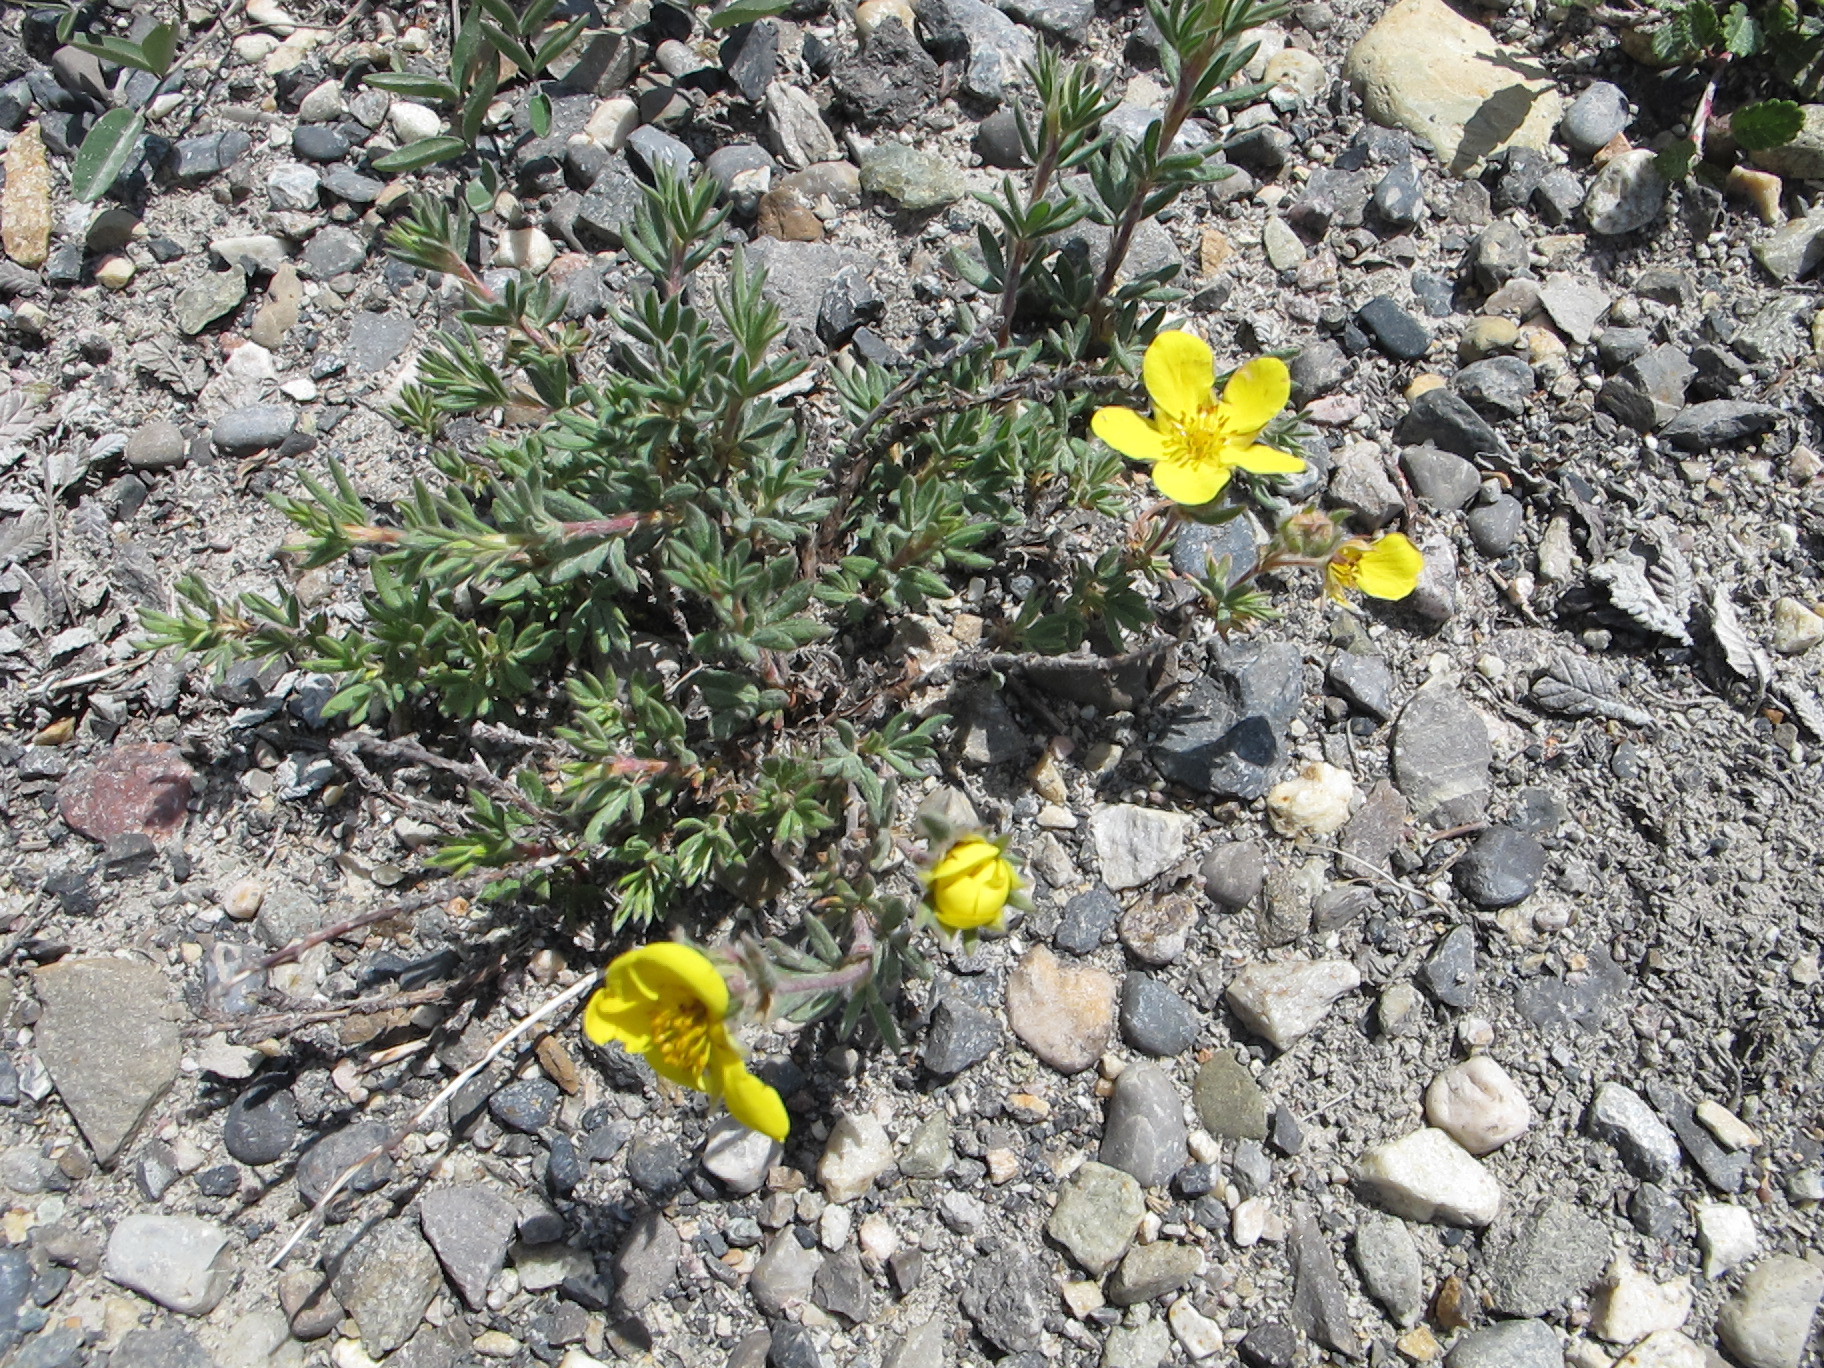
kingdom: Plantae
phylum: Tracheophyta
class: Magnoliopsida
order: Rosales
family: Rosaceae
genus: Dasiphora
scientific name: Dasiphora fruticosa
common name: Shrubby cinquefoil
